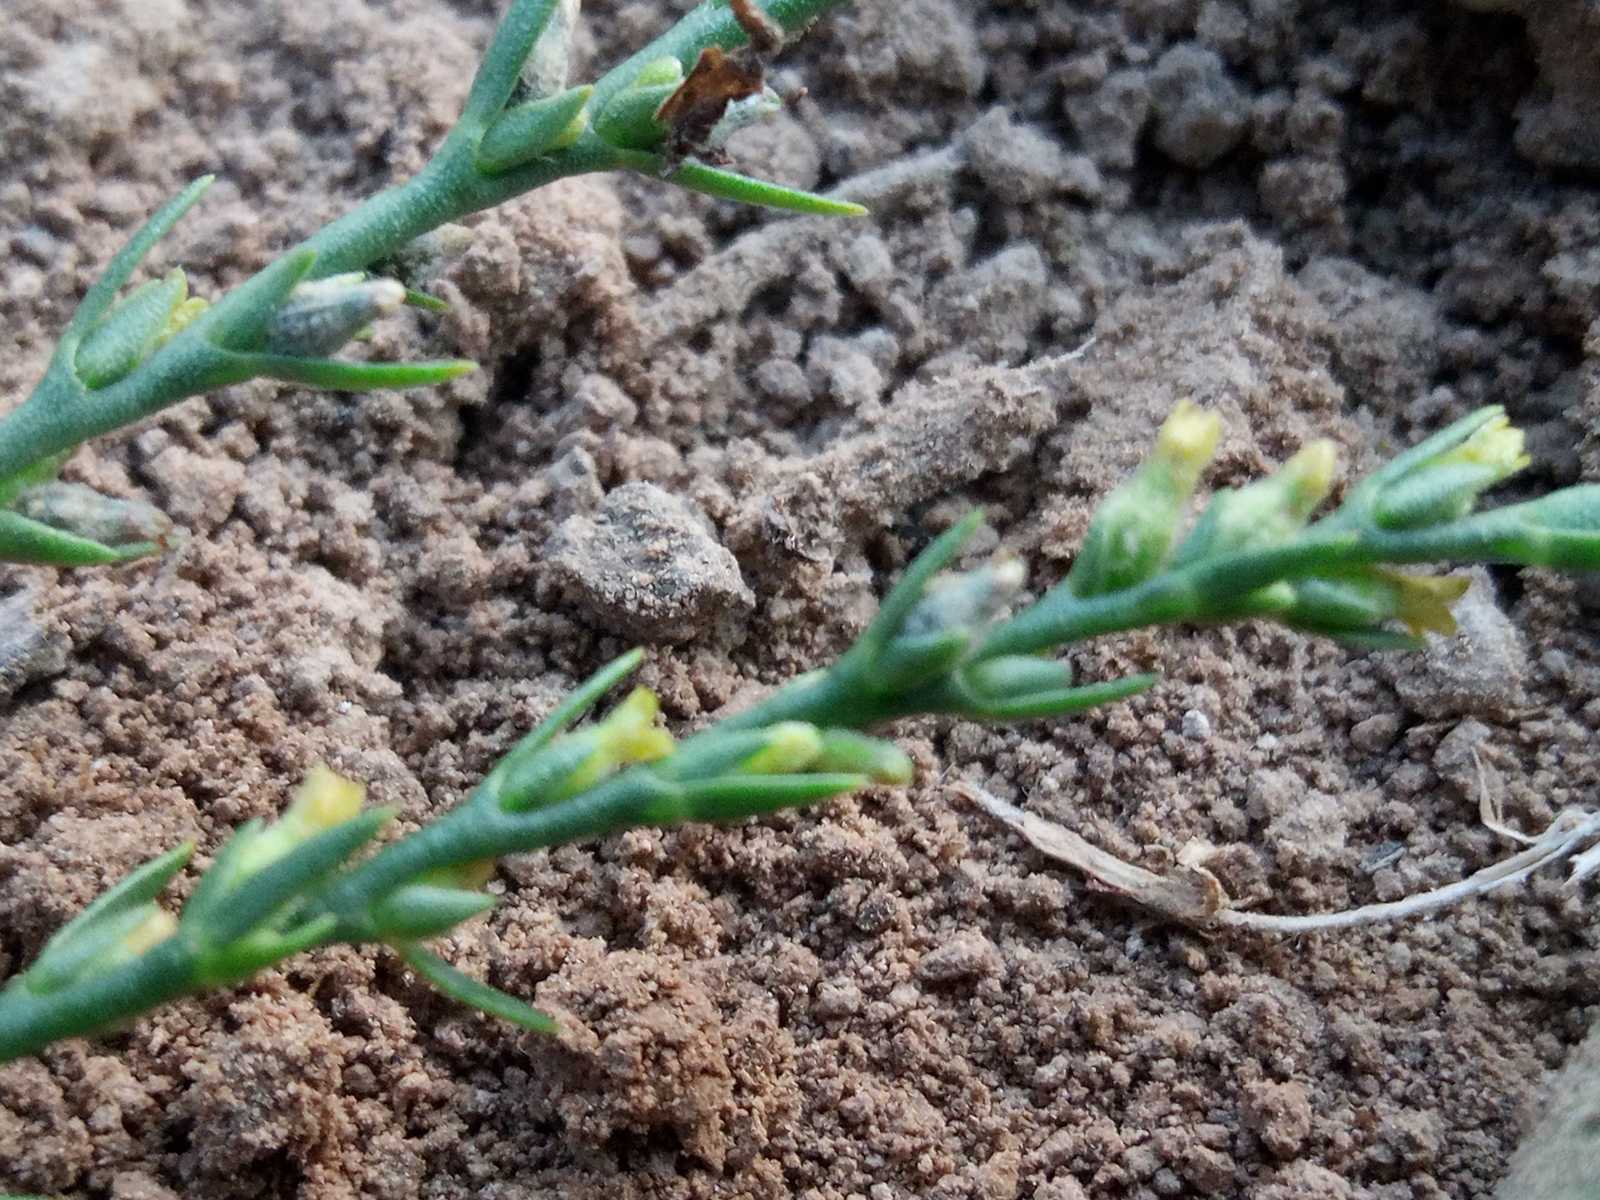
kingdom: Plantae
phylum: Tracheophyta
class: Magnoliopsida
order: Malvales
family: Thymelaeaceae
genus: Thymelaea
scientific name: Thymelaea passerina
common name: Annual thymelaea
